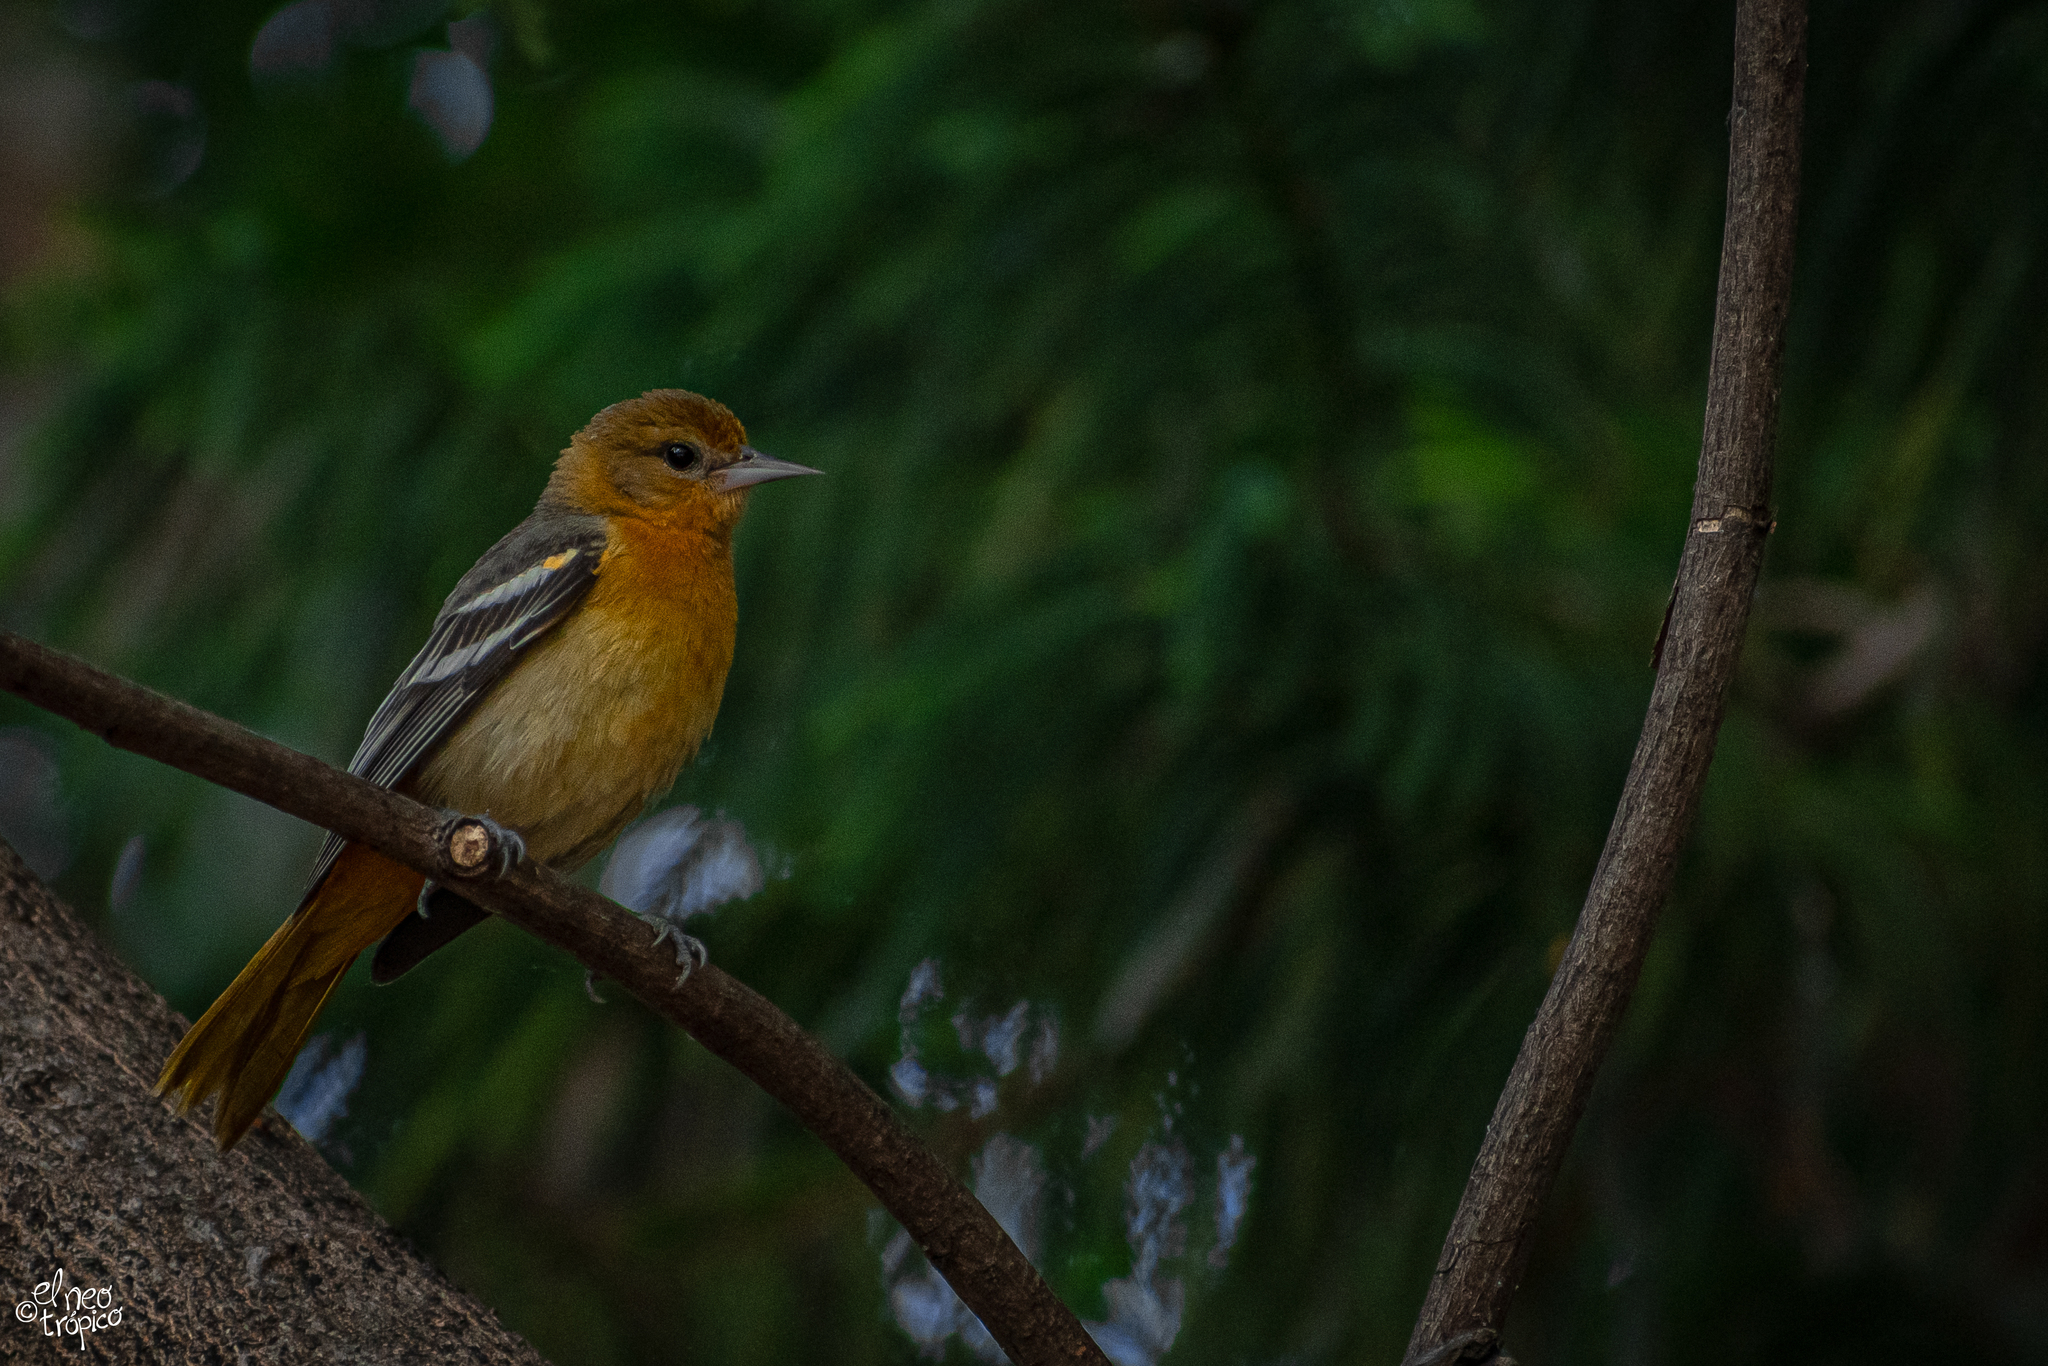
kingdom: Animalia
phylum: Chordata
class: Aves
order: Passeriformes
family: Icteridae
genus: Icterus
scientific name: Icterus galbula
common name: Baltimore oriole
